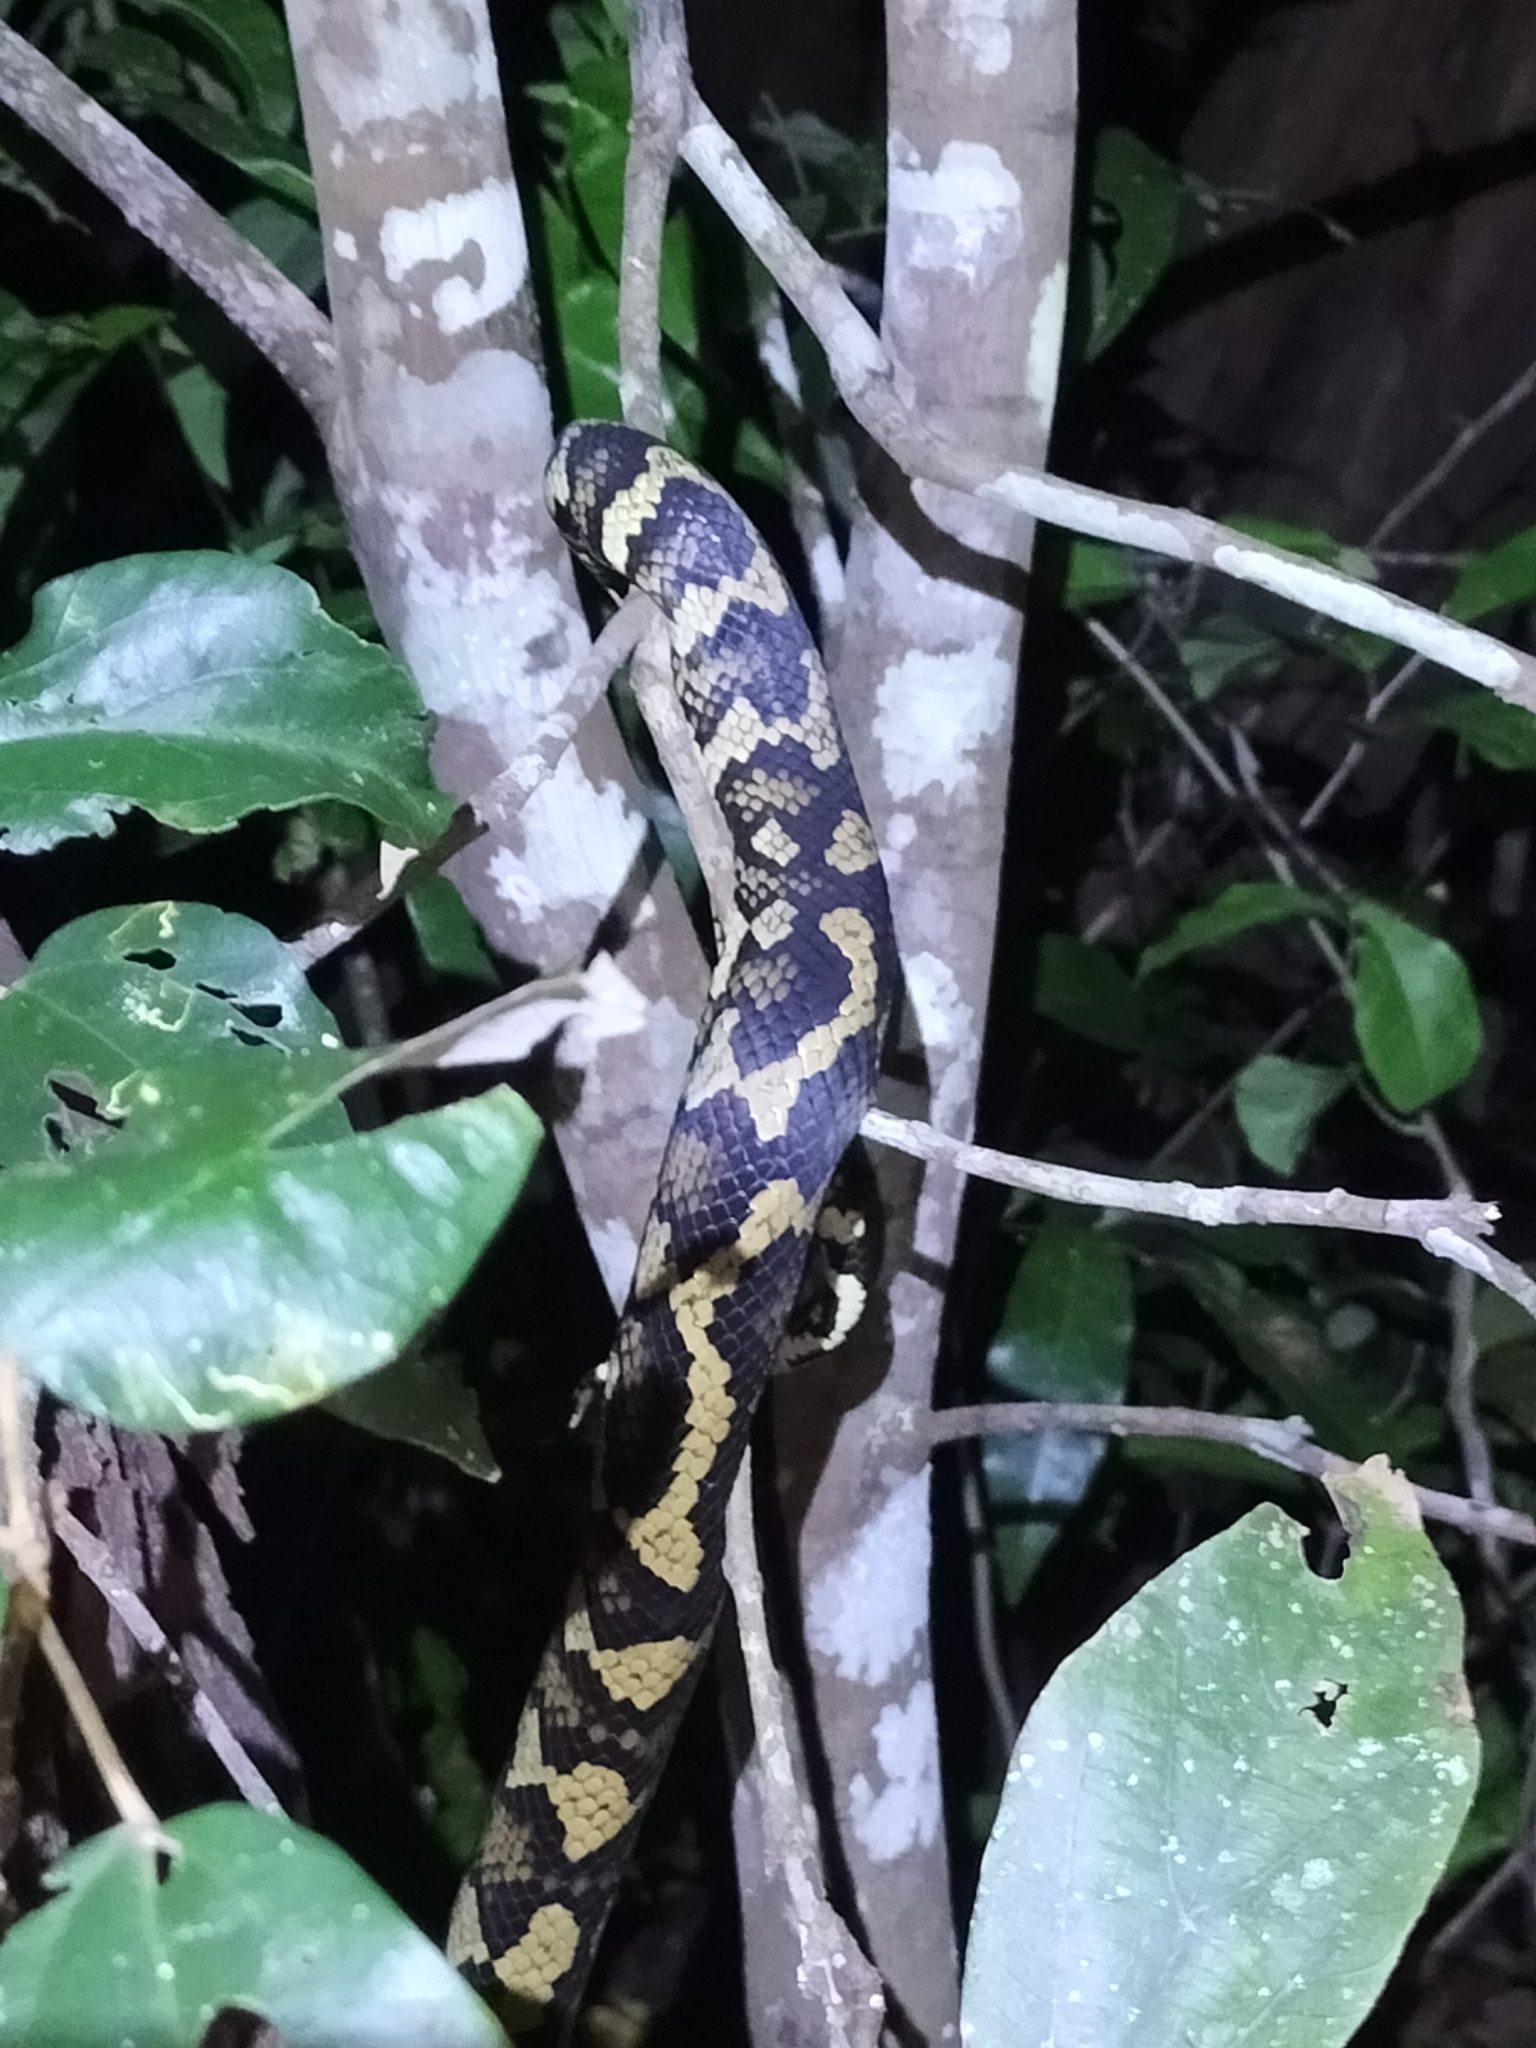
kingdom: Animalia
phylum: Chordata
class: Squamata
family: Pythonidae
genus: Morelia
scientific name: Morelia spilota
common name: Carpet python
